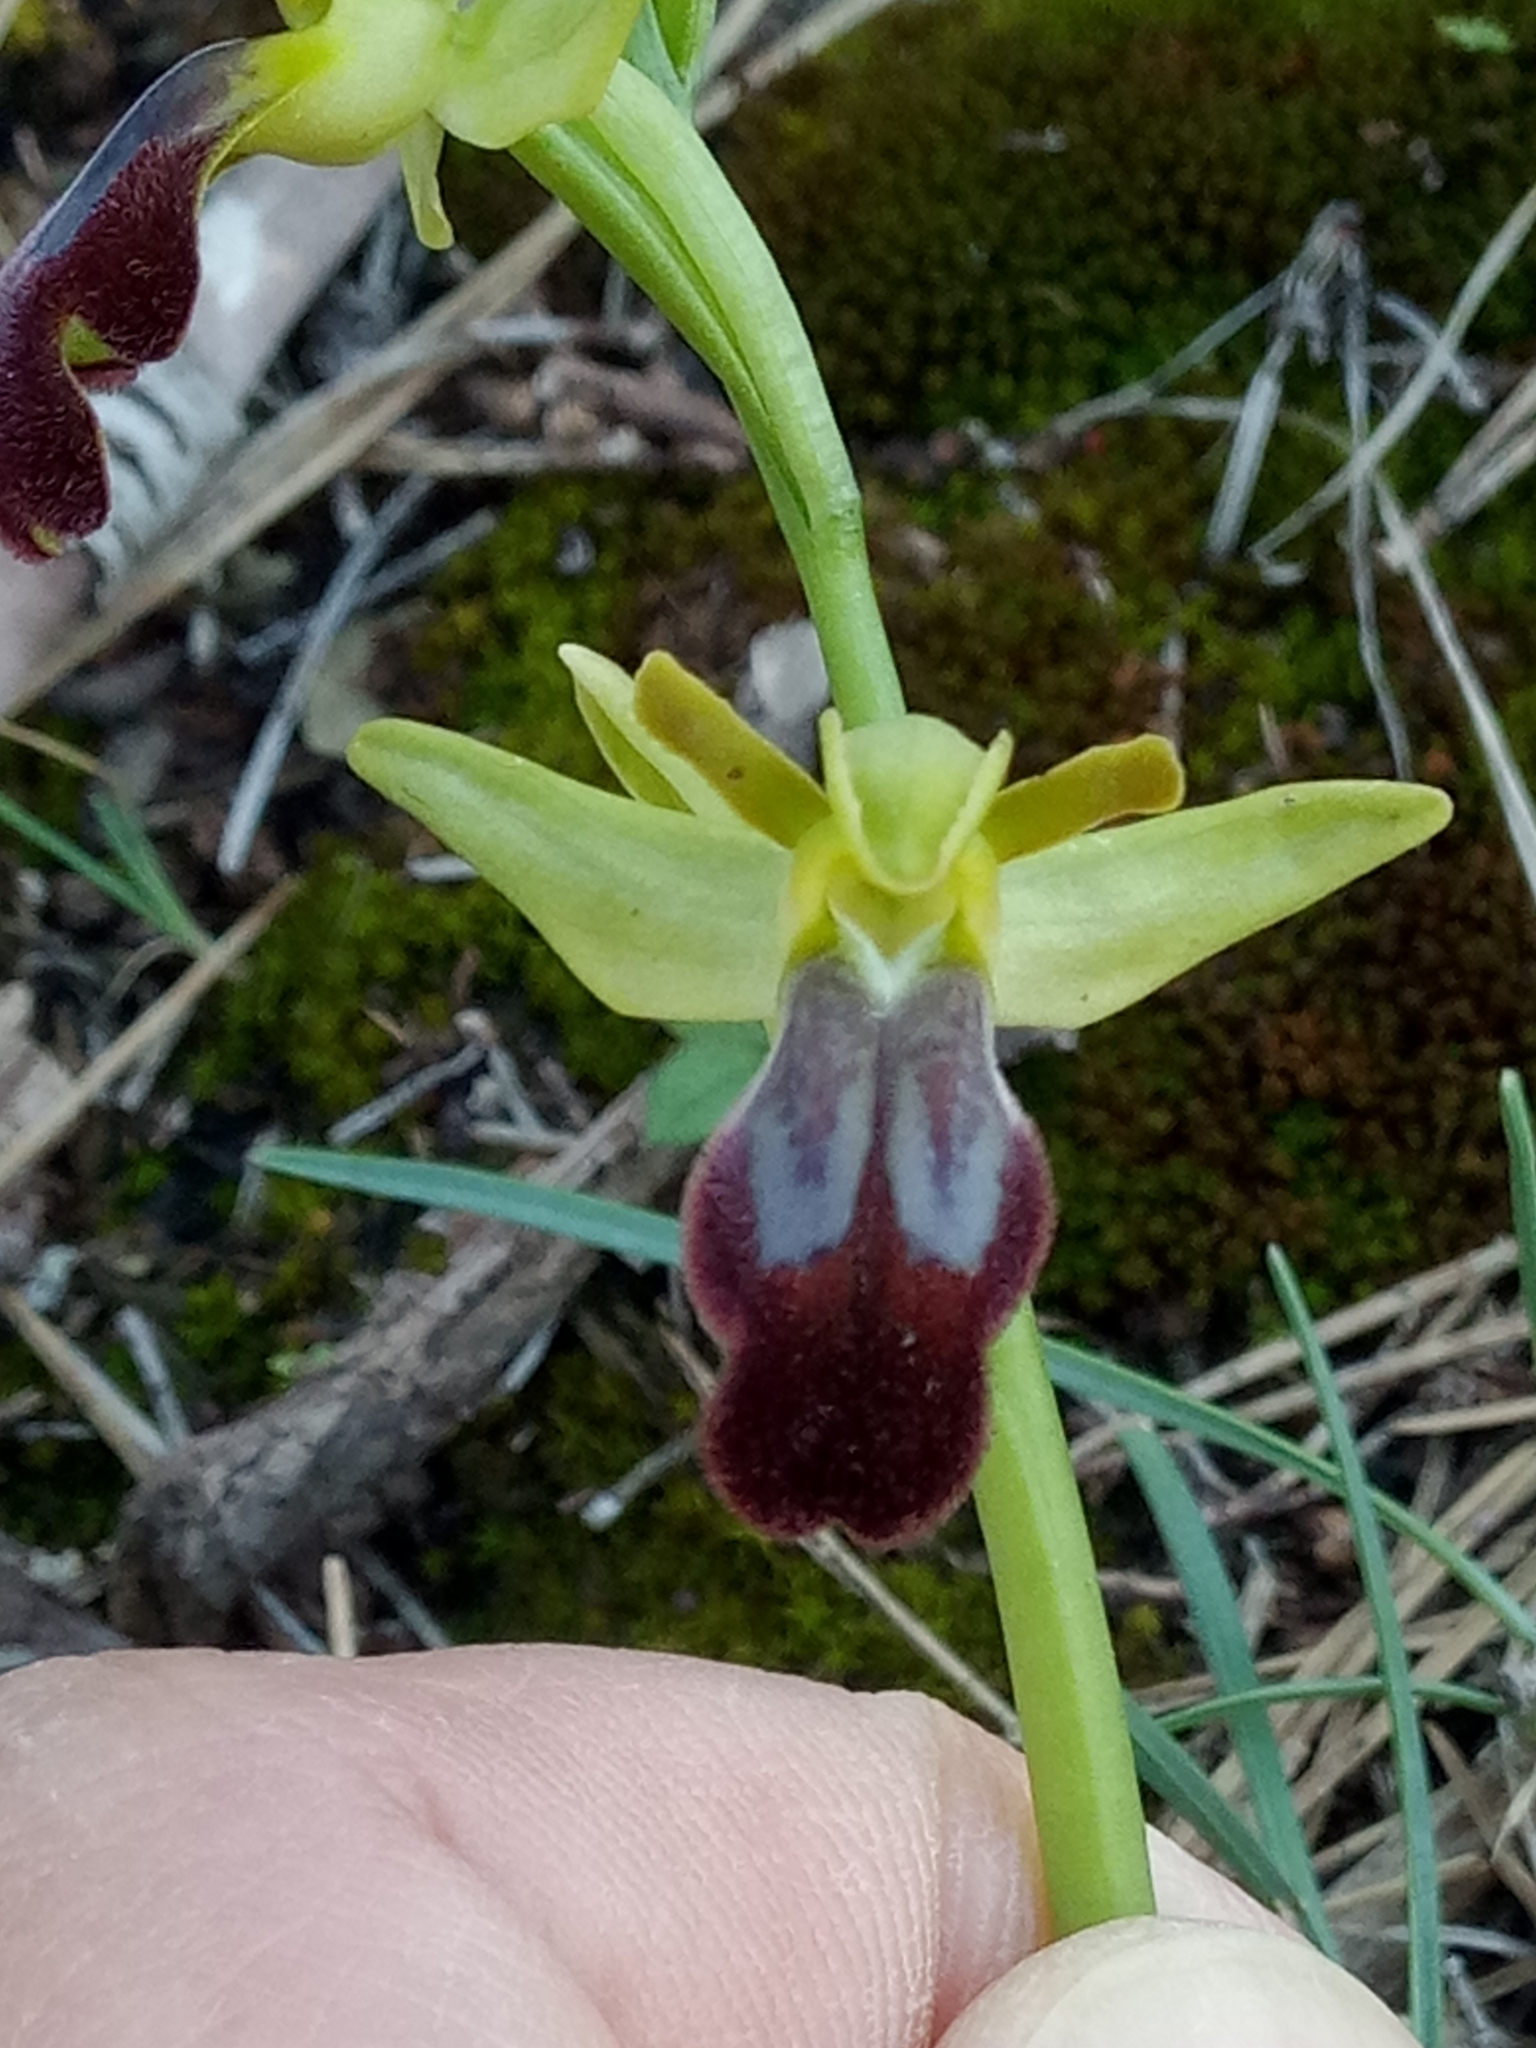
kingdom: Plantae
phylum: Tracheophyta
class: Liliopsida
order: Asparagales
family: Orchidaceae
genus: Ophrys
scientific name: Ophrys fusca
